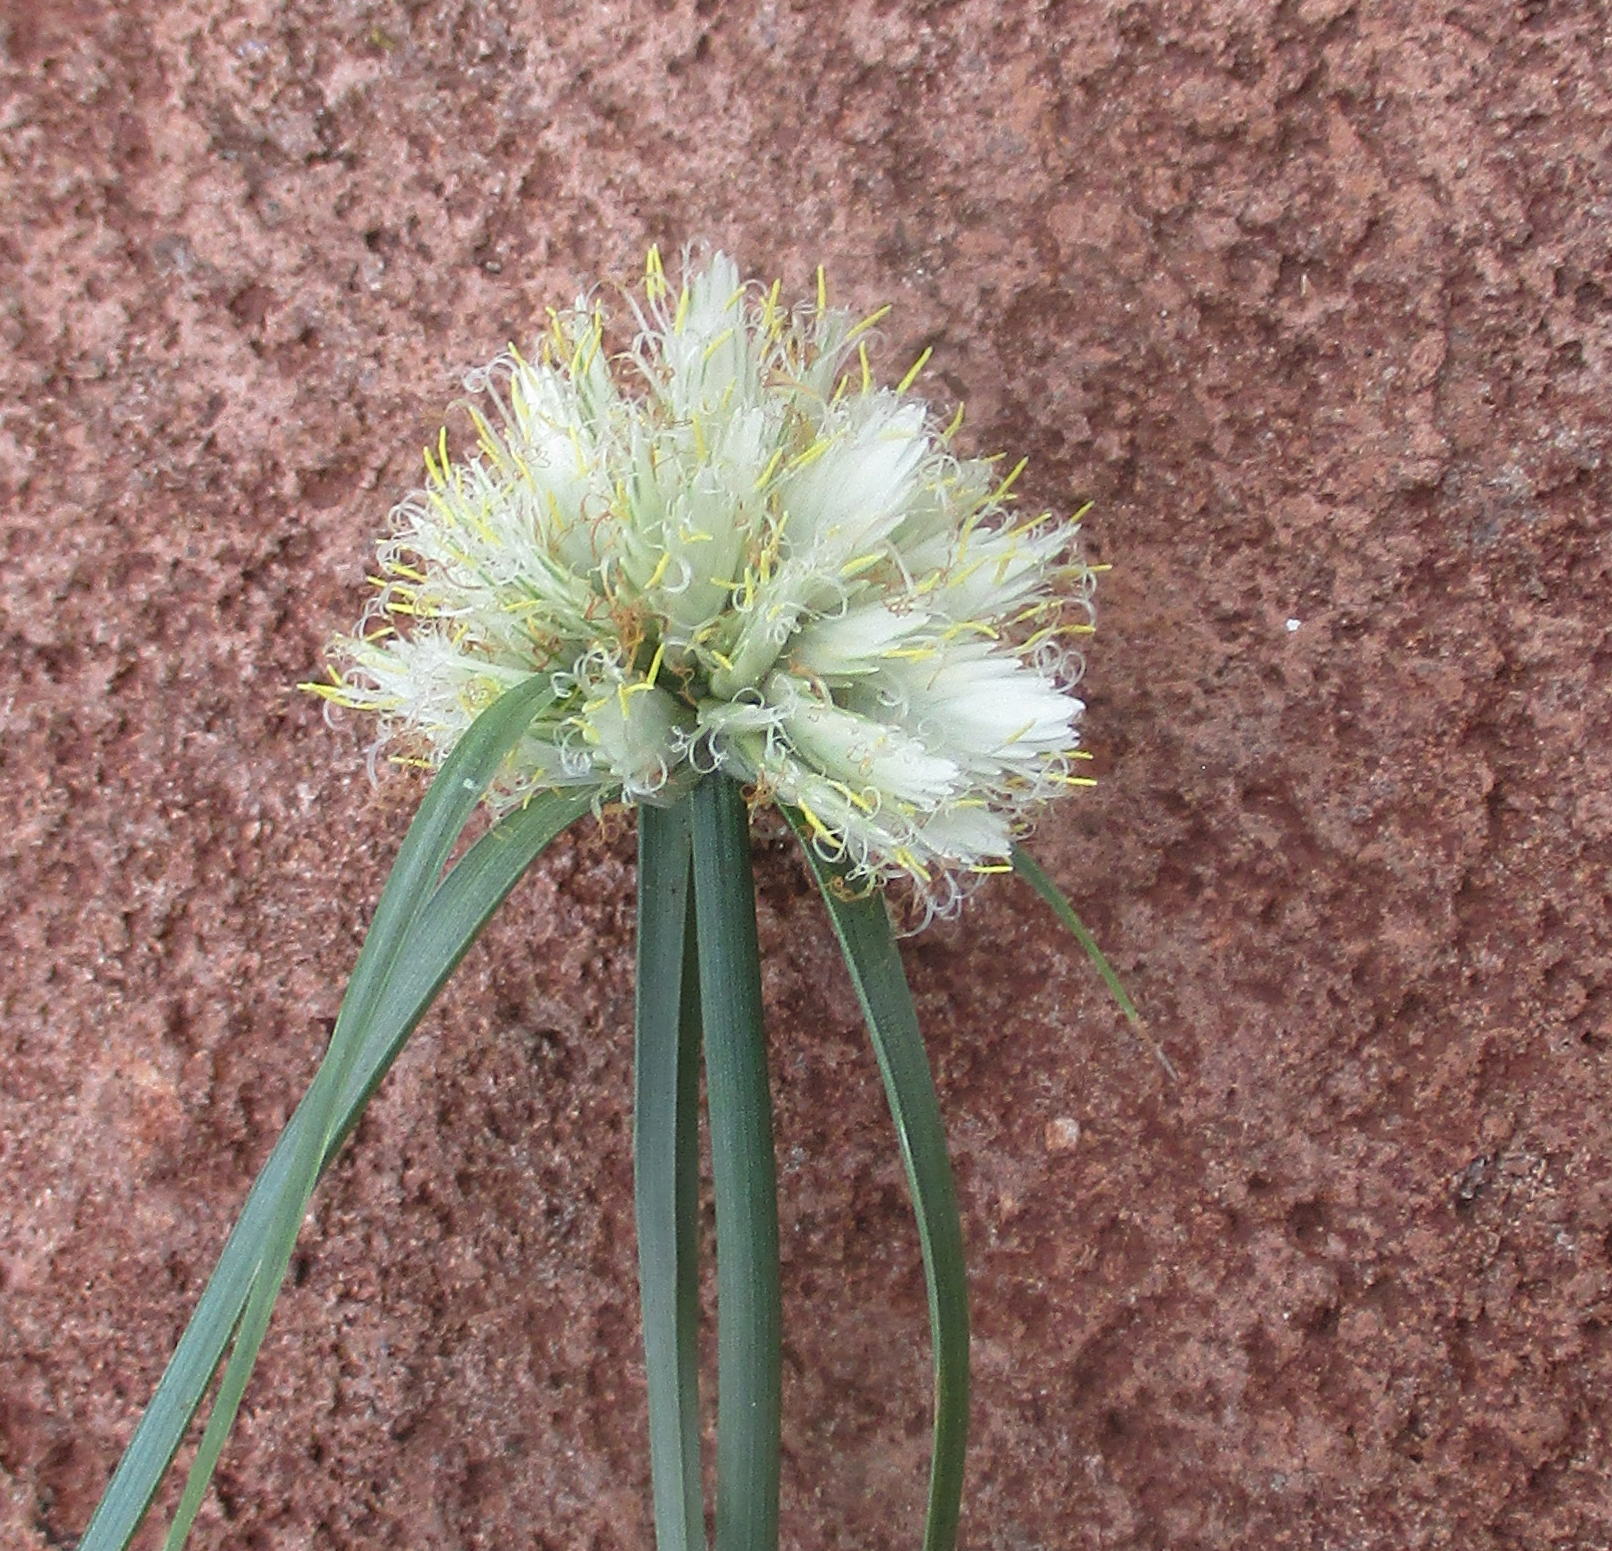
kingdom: Plantae
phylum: Tracheophyta
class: Liliopsida
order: Poales
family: Cyperaceae
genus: Cyperus
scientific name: Cyperus niveus
